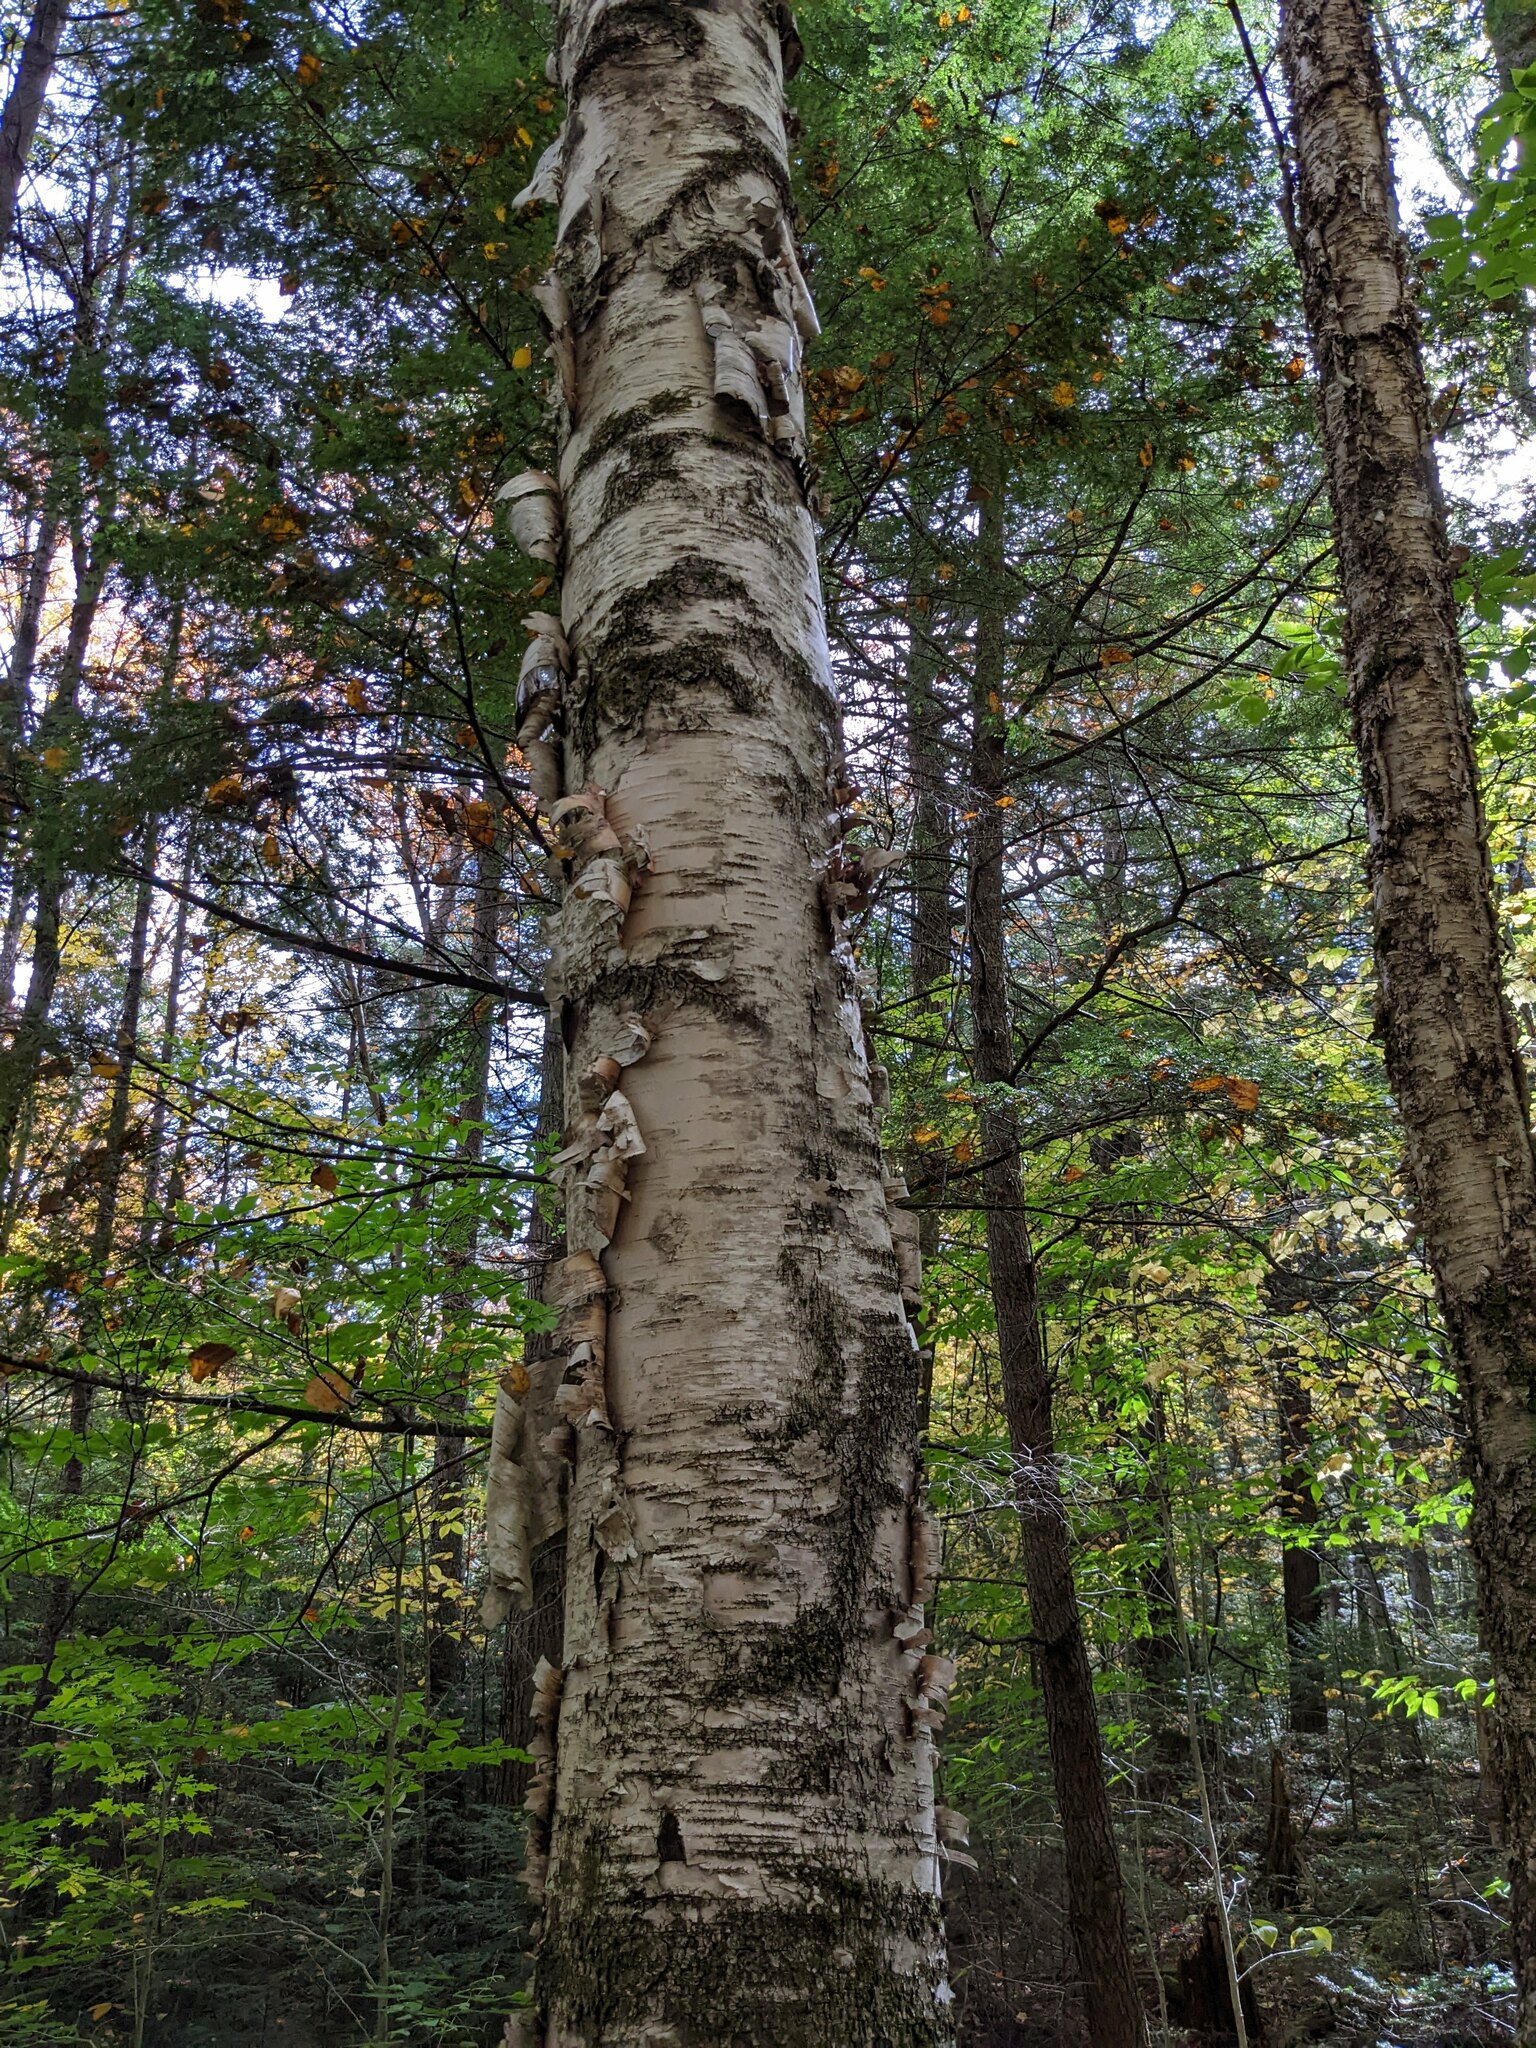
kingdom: Plantae
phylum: Tracheophyta
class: Magnoliopsida
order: Fagales
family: Betulaceae
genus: Betula
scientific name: Betula papyrifera
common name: Paper birch
